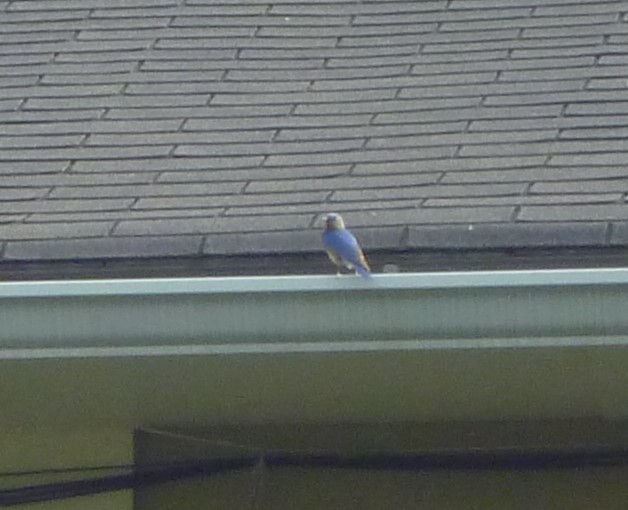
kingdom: Animalia
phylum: Chordata
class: Aves
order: Passeriformes
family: Turdidae
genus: Sialia
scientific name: Sialia sialis
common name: Eastern bluebird
